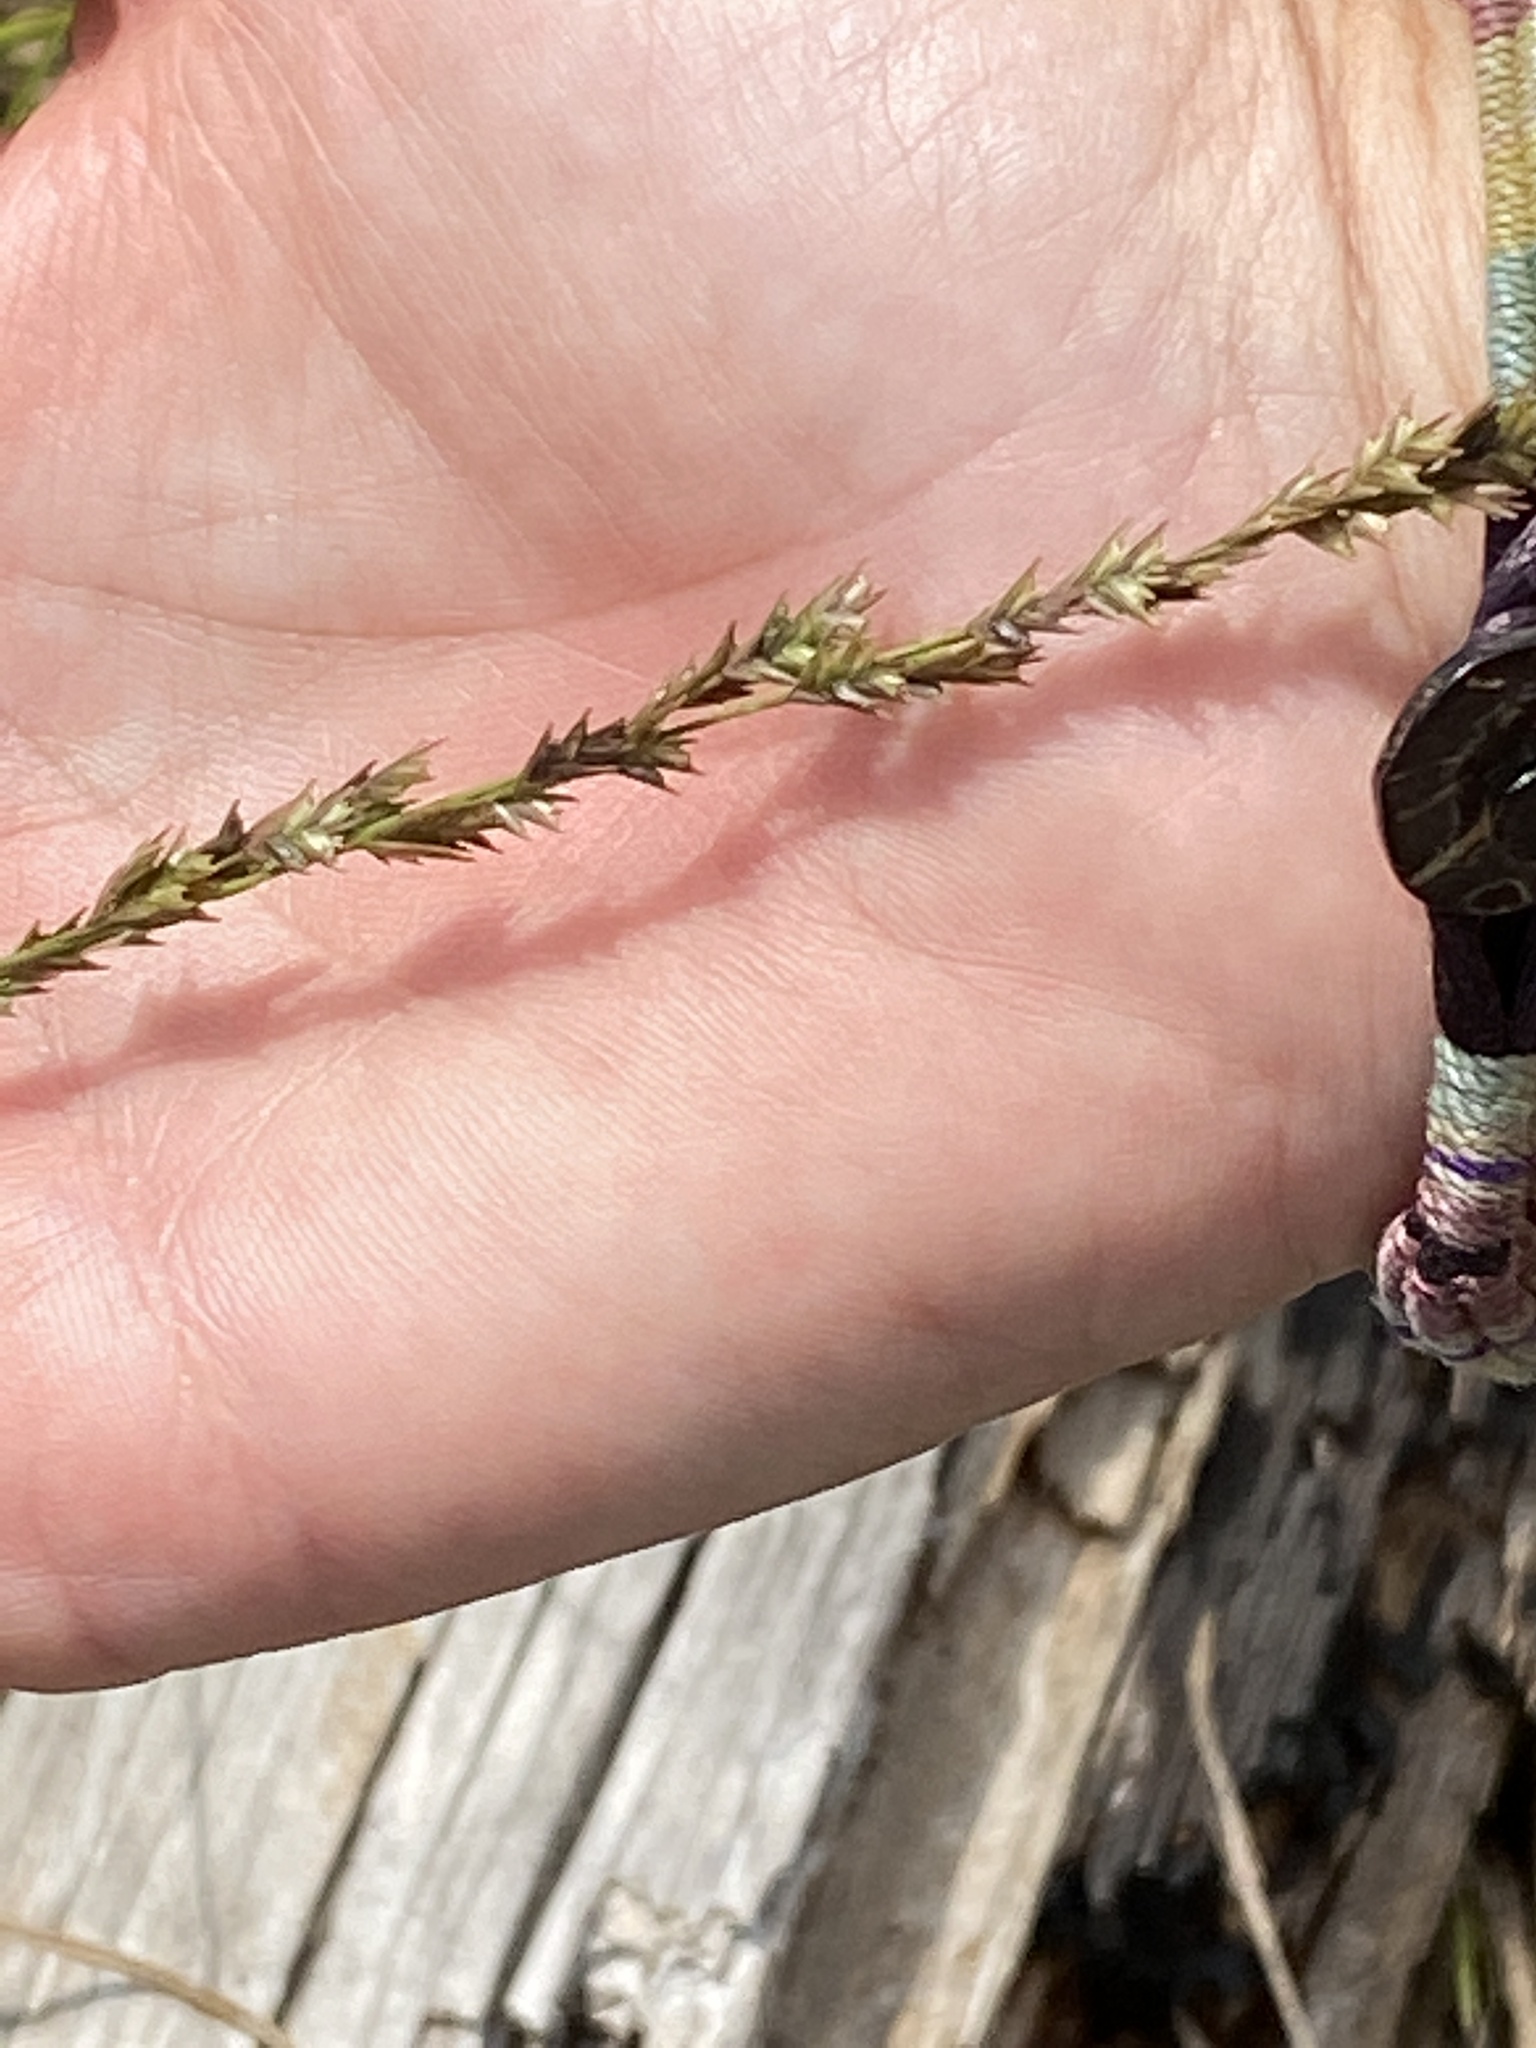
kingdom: Plantae
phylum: Tracheophyta
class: Liliopsida
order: Poales
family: Poaceae
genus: Chasmanthium
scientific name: Chasmanthium laxum
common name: Slender chasmanthium
